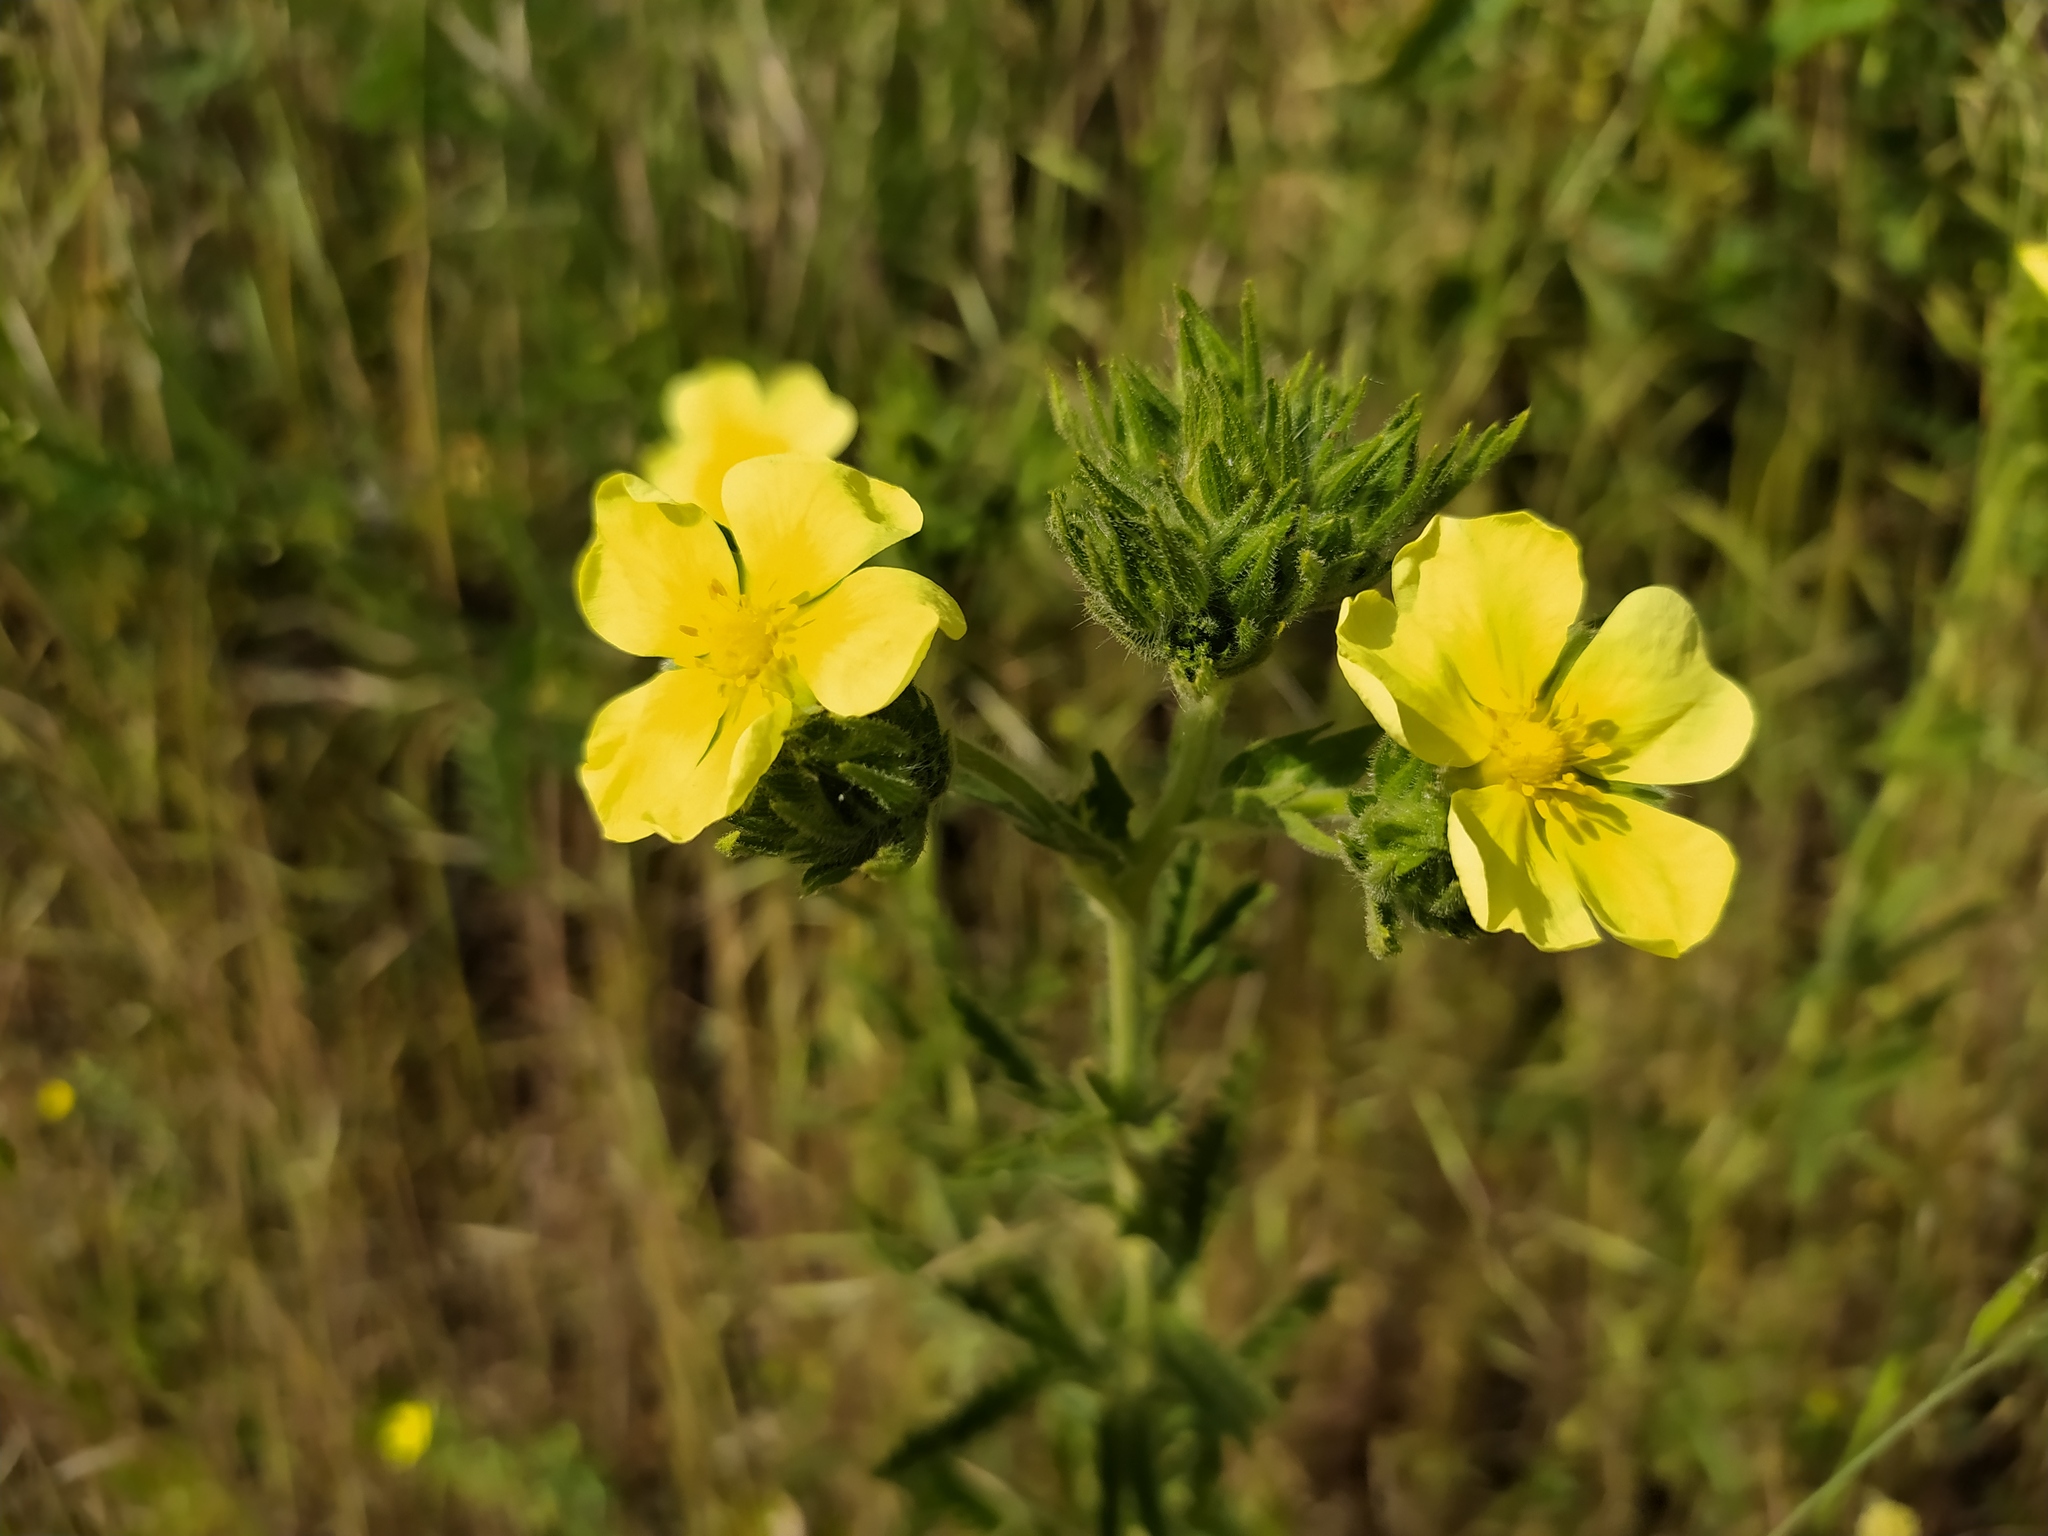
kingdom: Plantae
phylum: Tracheophyta
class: Magnoliopsida
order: Rosales
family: Rosaceae
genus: Potentilla
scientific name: Potentilla recta
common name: Sulphur cinquefoil
